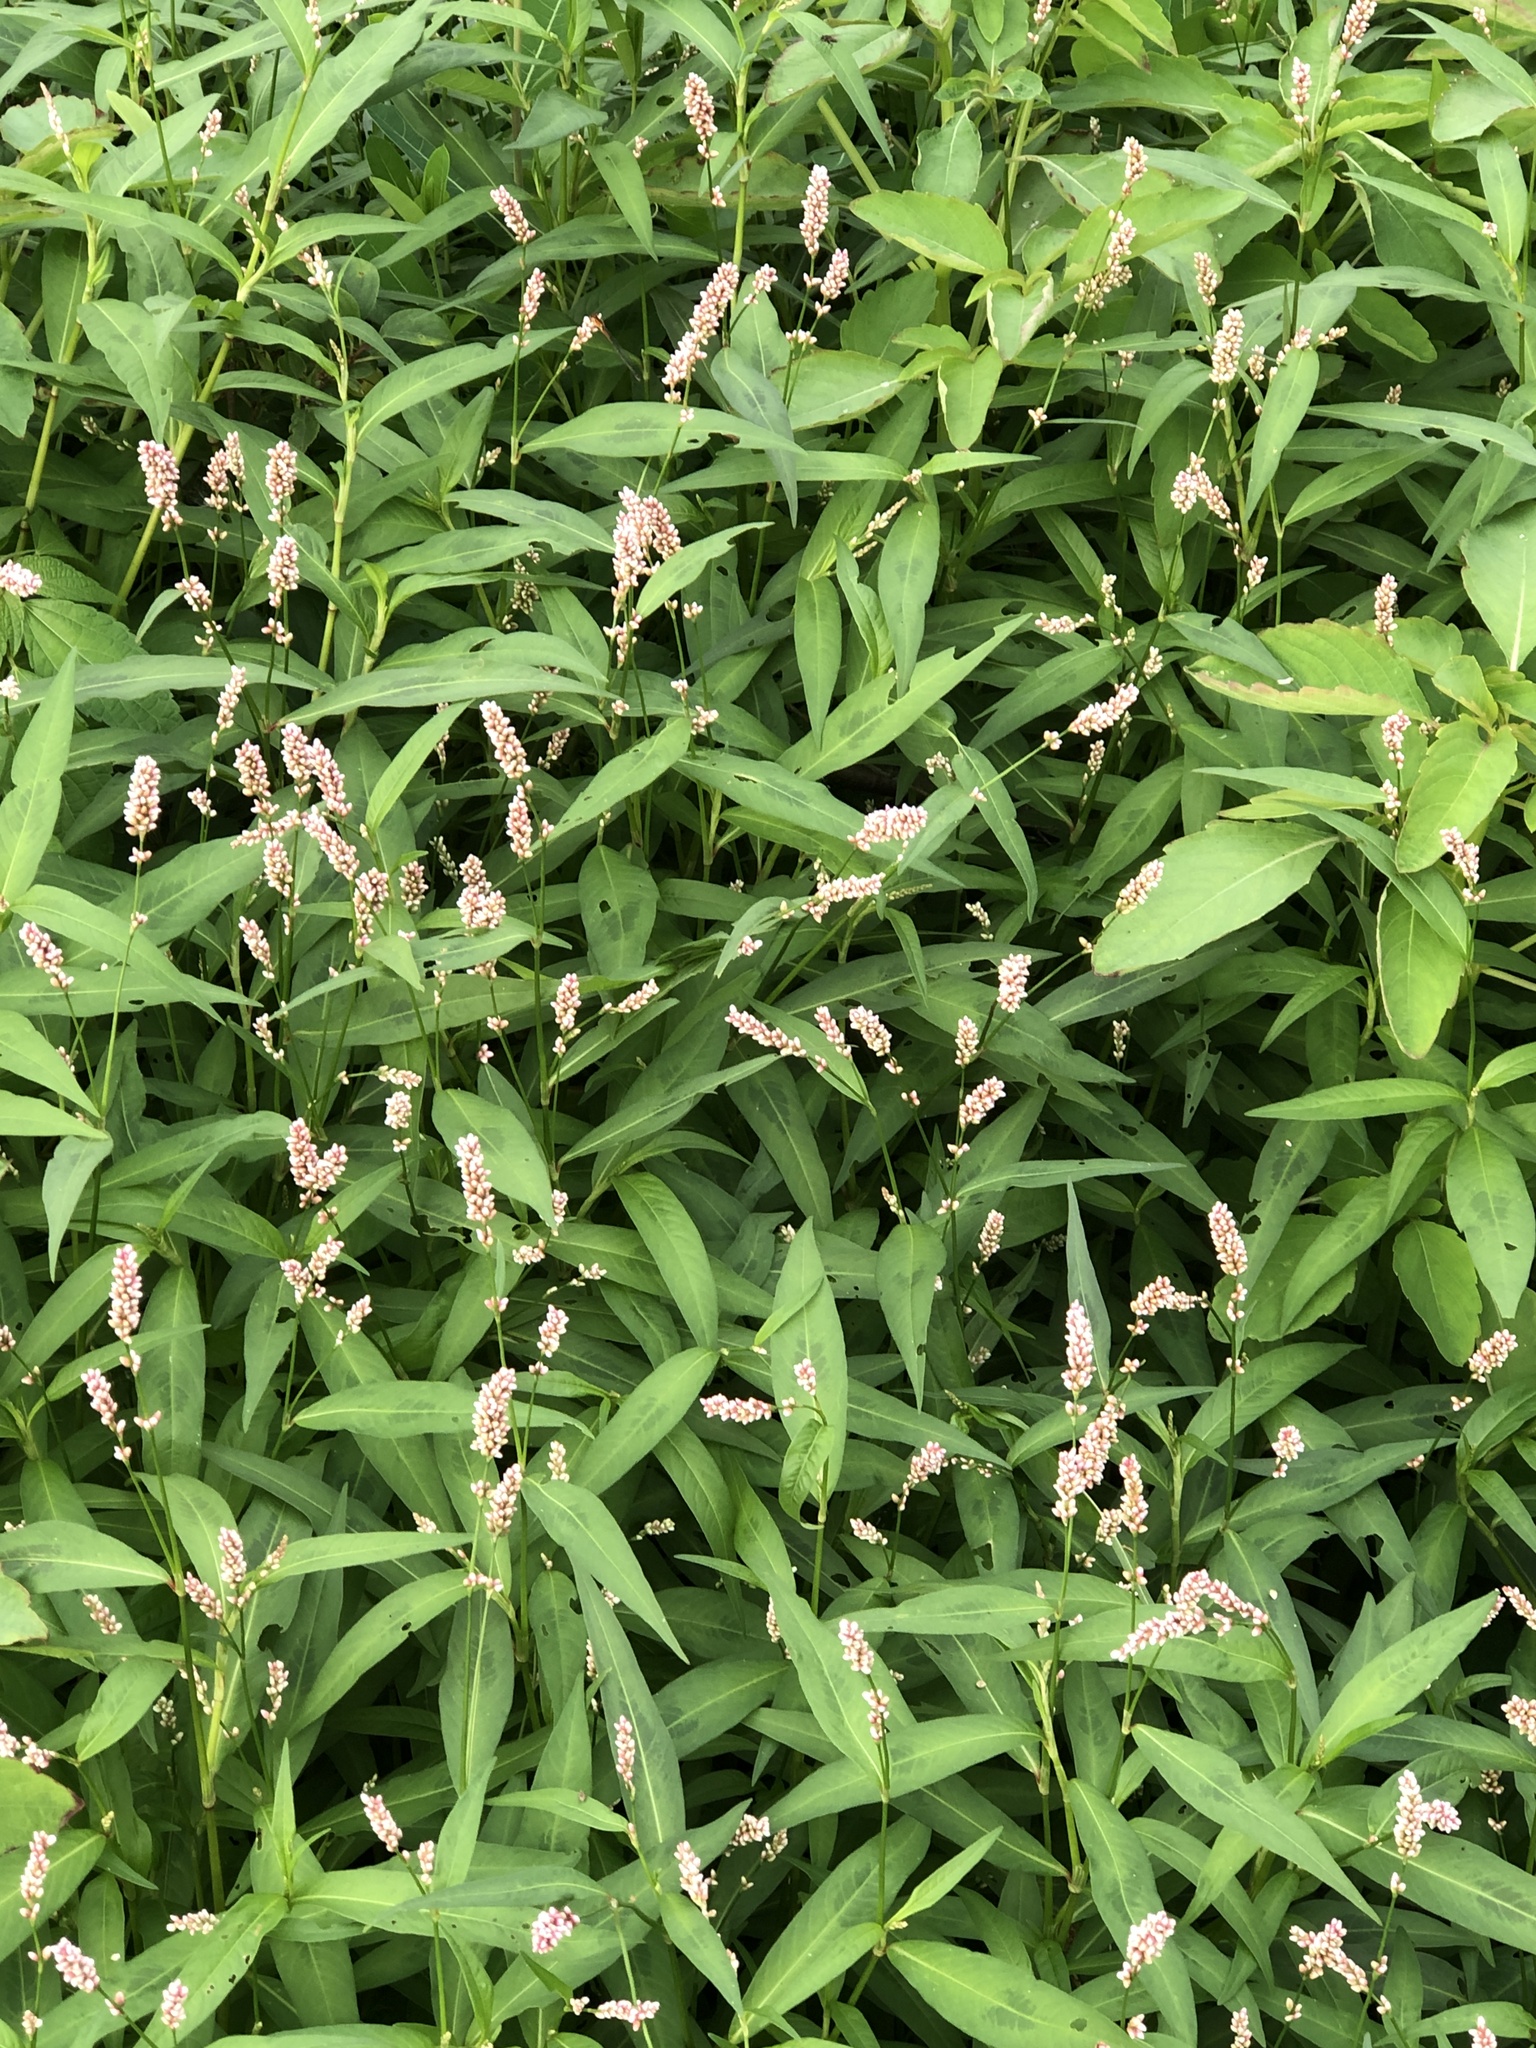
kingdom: Plantae
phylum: Tracheophyta
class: Magnoliopsida
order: Caryophyllales
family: Polygonaceae
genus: Persicaria
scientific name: Persicaria maculosa
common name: Redshank
